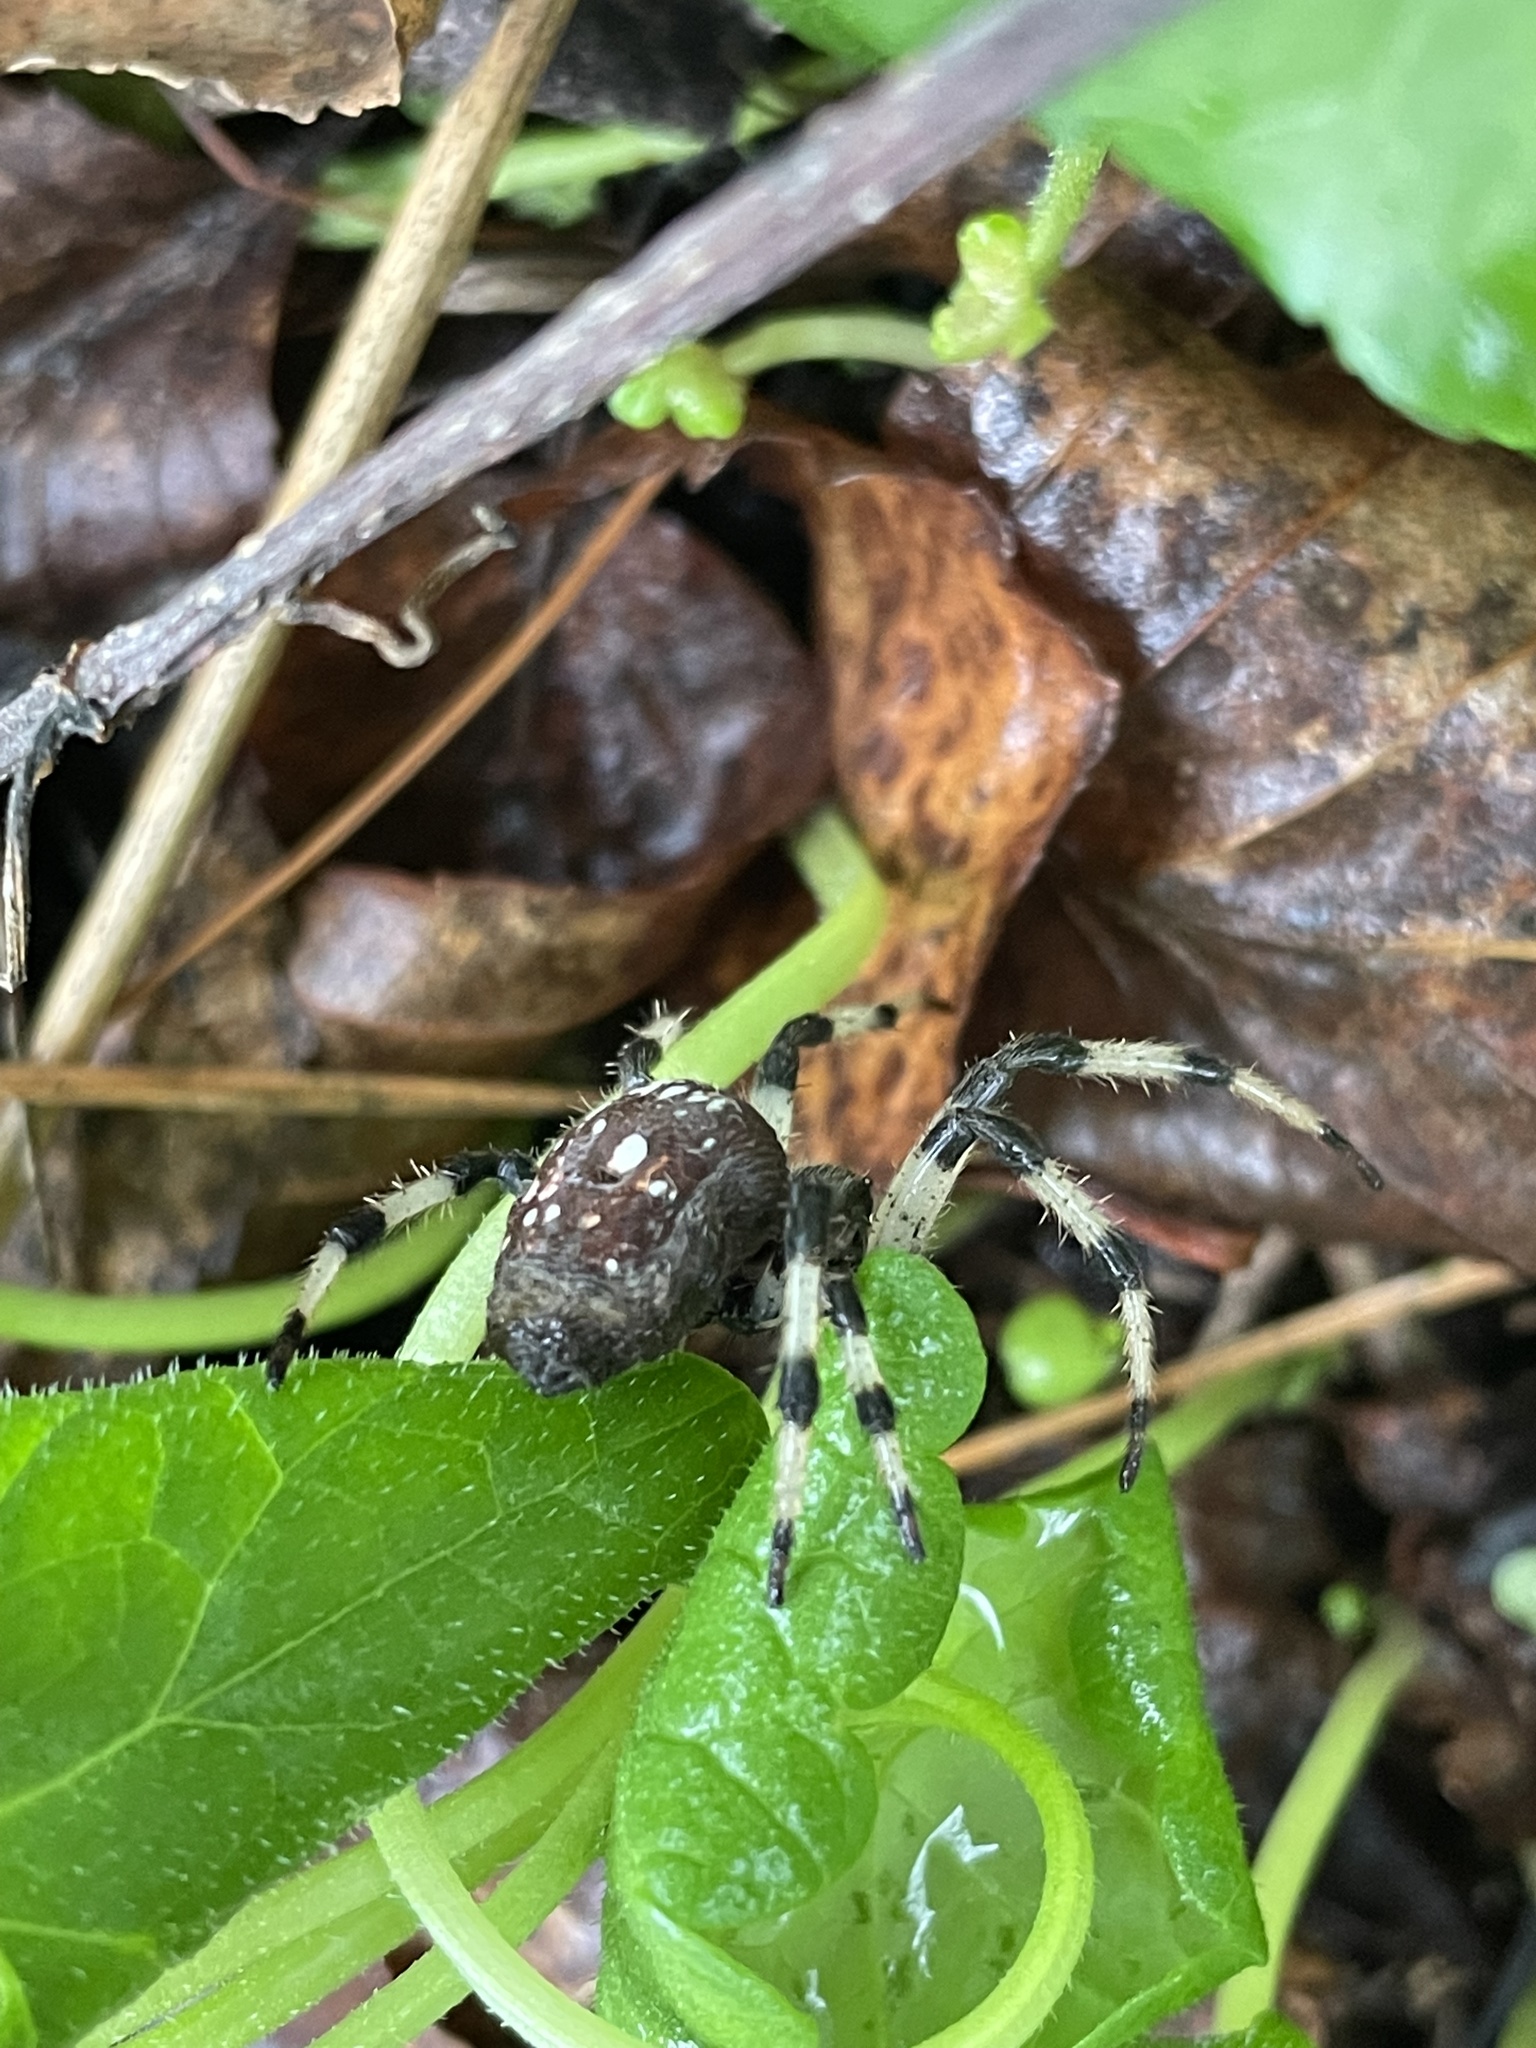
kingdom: Animalia
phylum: Arthropoda
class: Arachnida
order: Araneae
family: Araneidae
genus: Araneus
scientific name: Araneus trifolium
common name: Shamrock orbweaver
